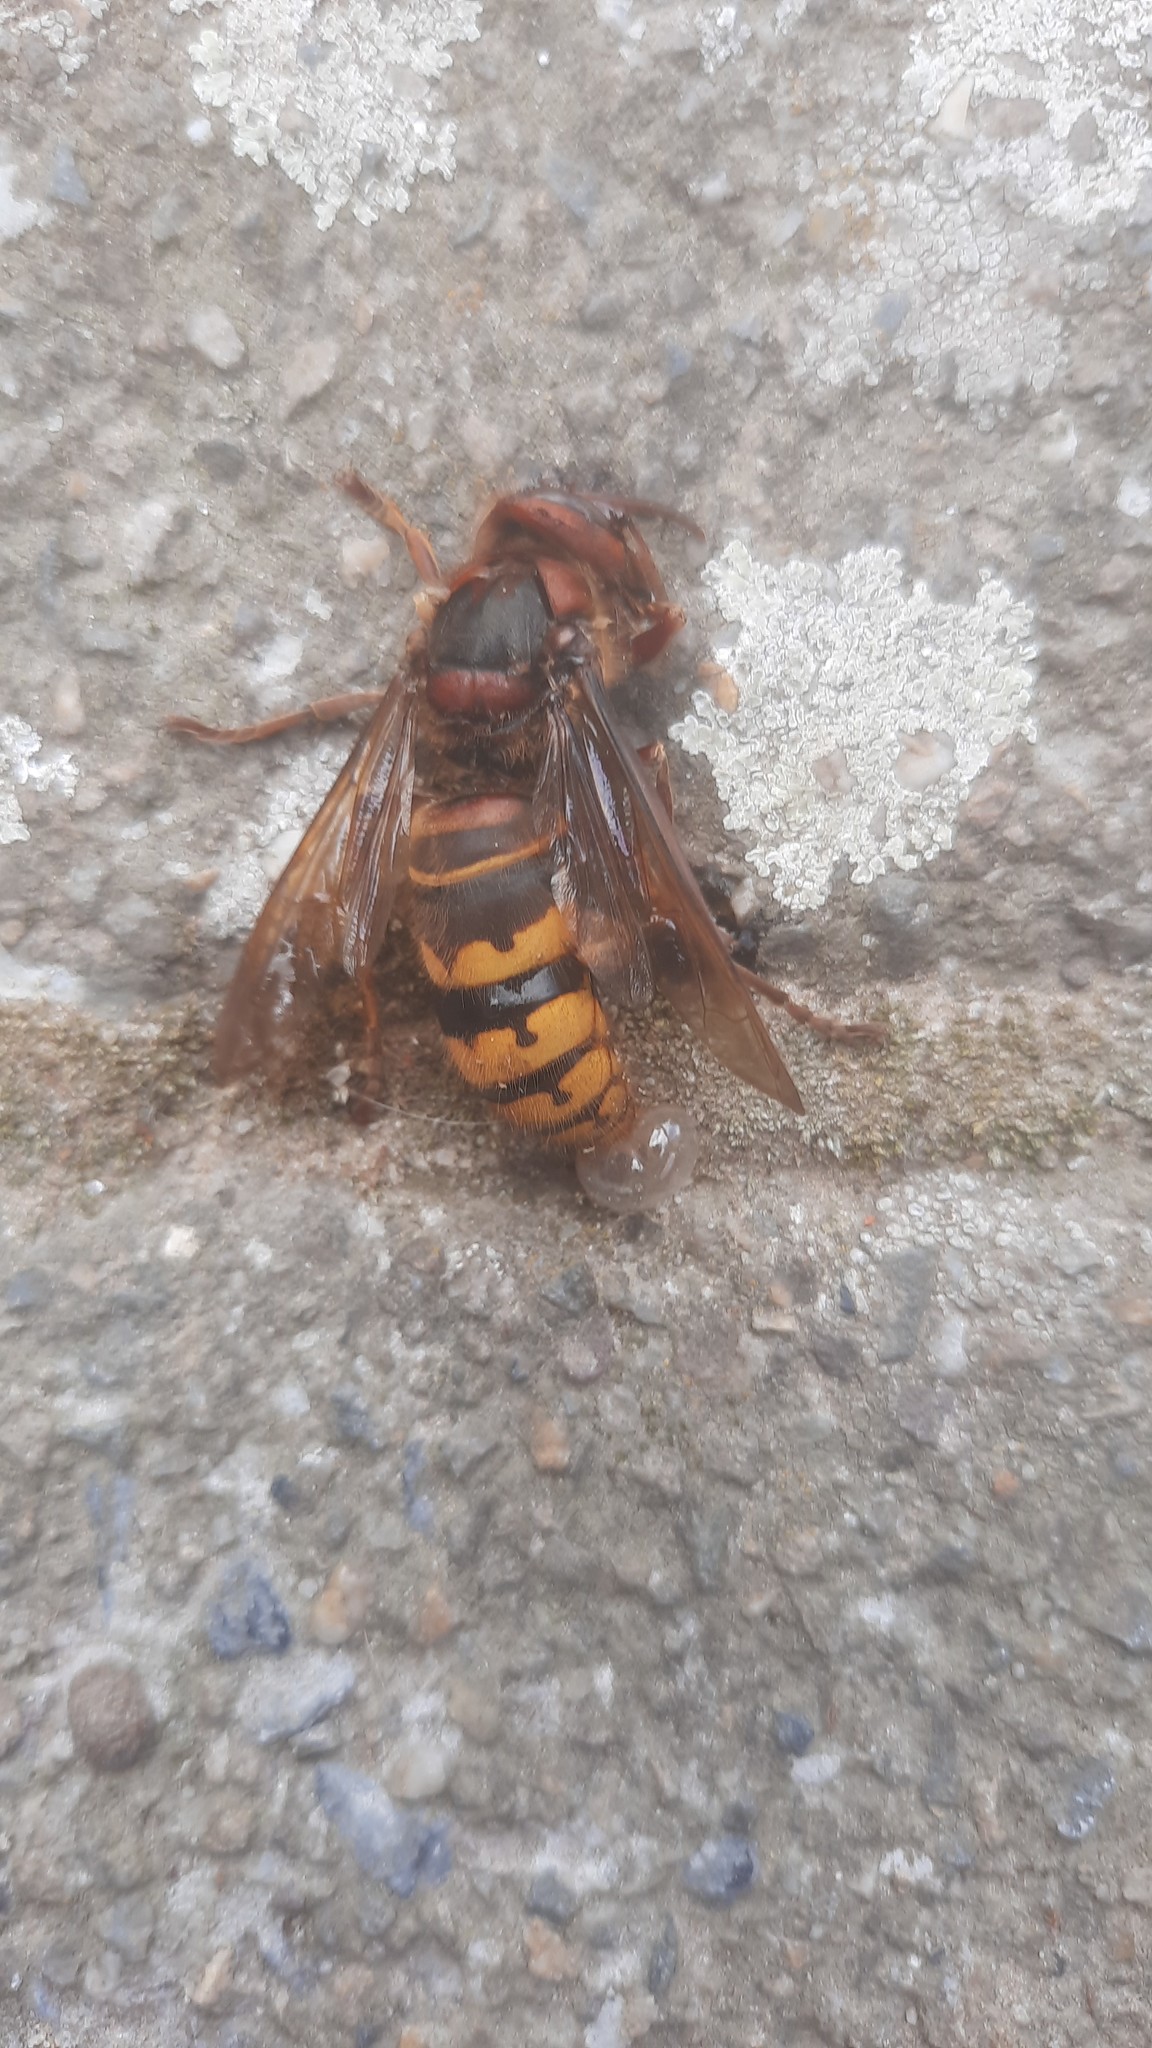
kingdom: Animalia
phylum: Arthropoda
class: Insecta
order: Hymenoptera
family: Vespidae
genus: Vespa
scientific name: Vespa crabro
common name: Hornet
